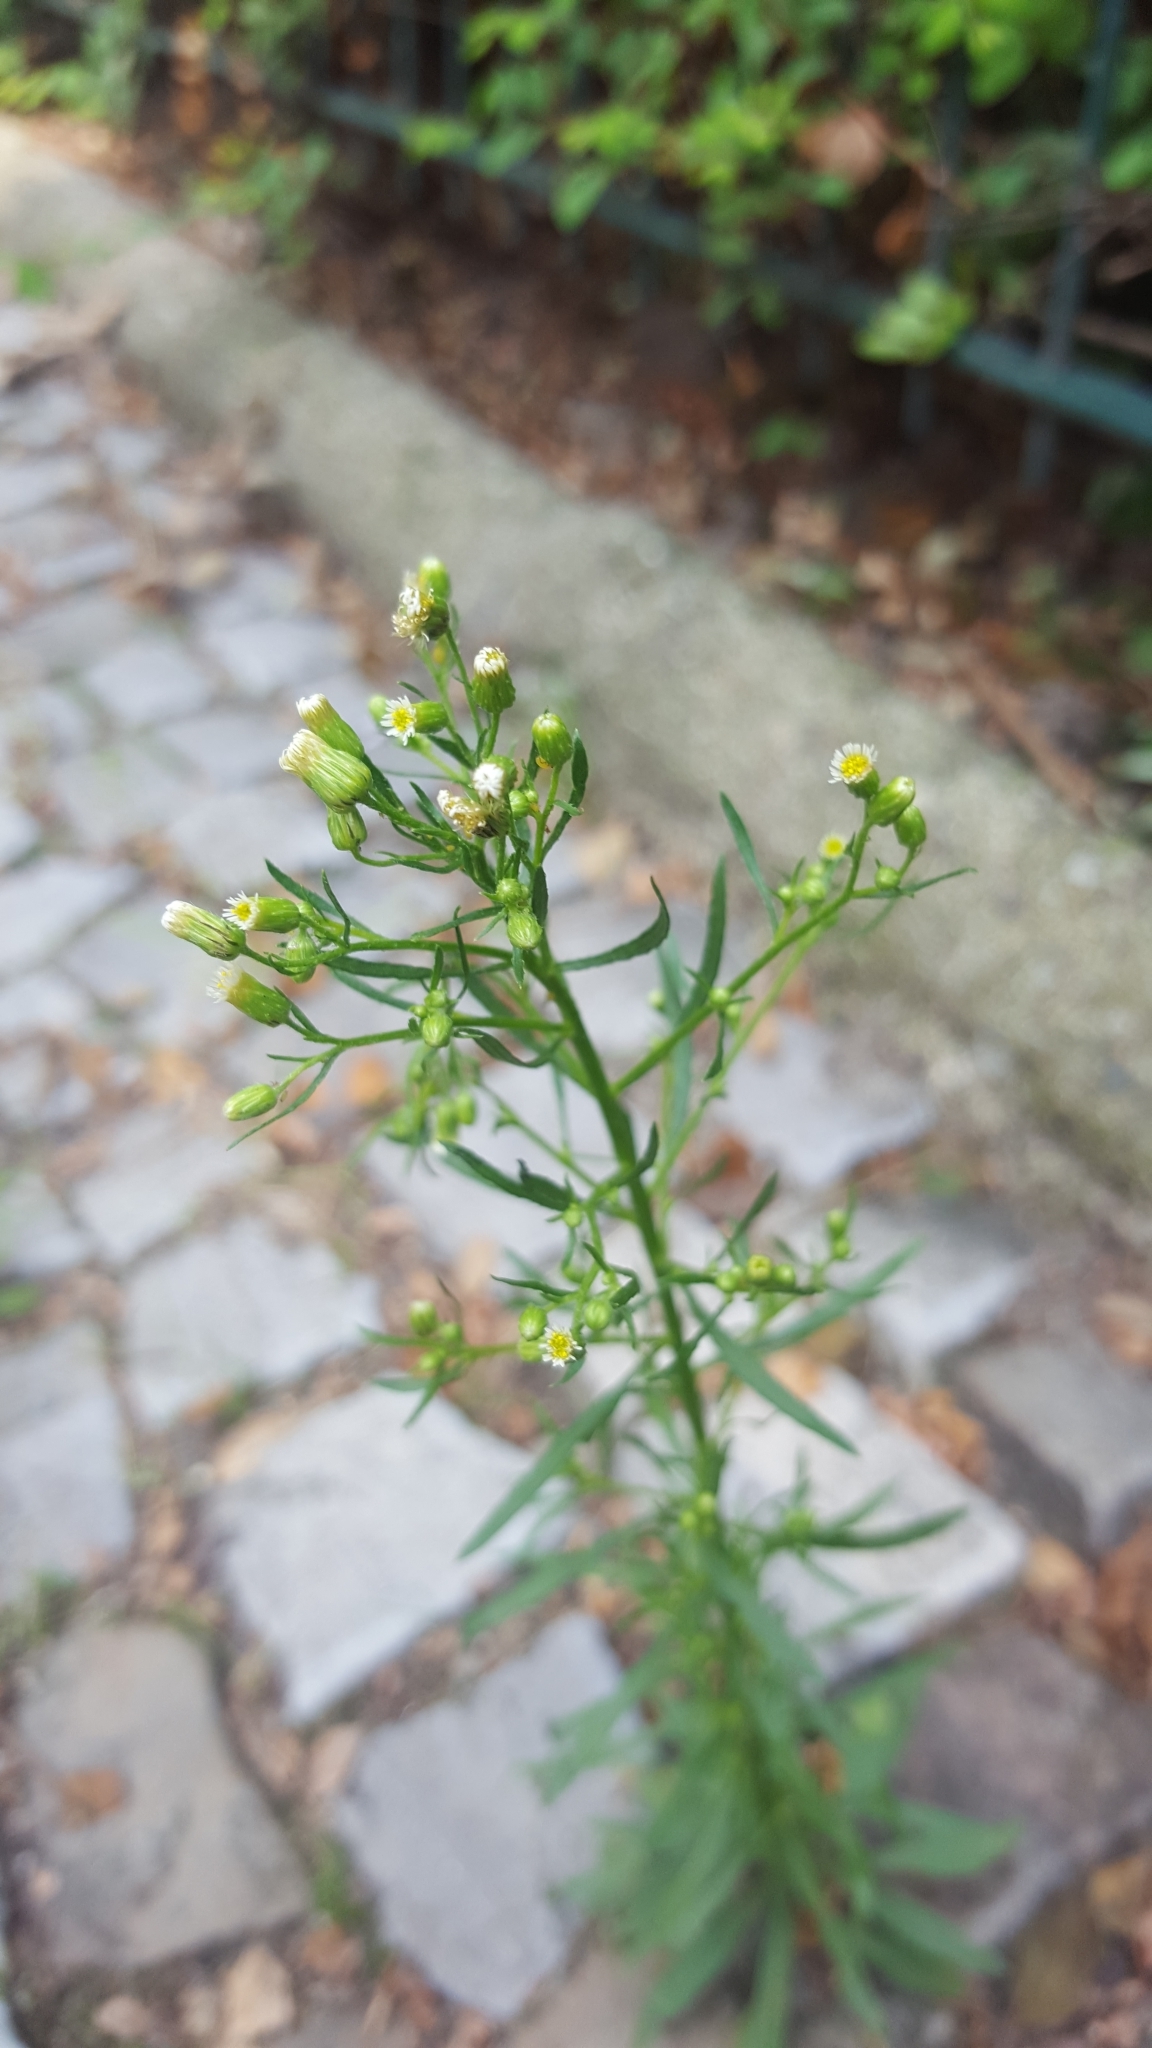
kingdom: Plantae
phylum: Tracheophyta
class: Magnoliopsida
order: Asterales
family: Asteraceae
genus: Erigeron
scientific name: Erigeron canadensis
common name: Canadian fleabane
